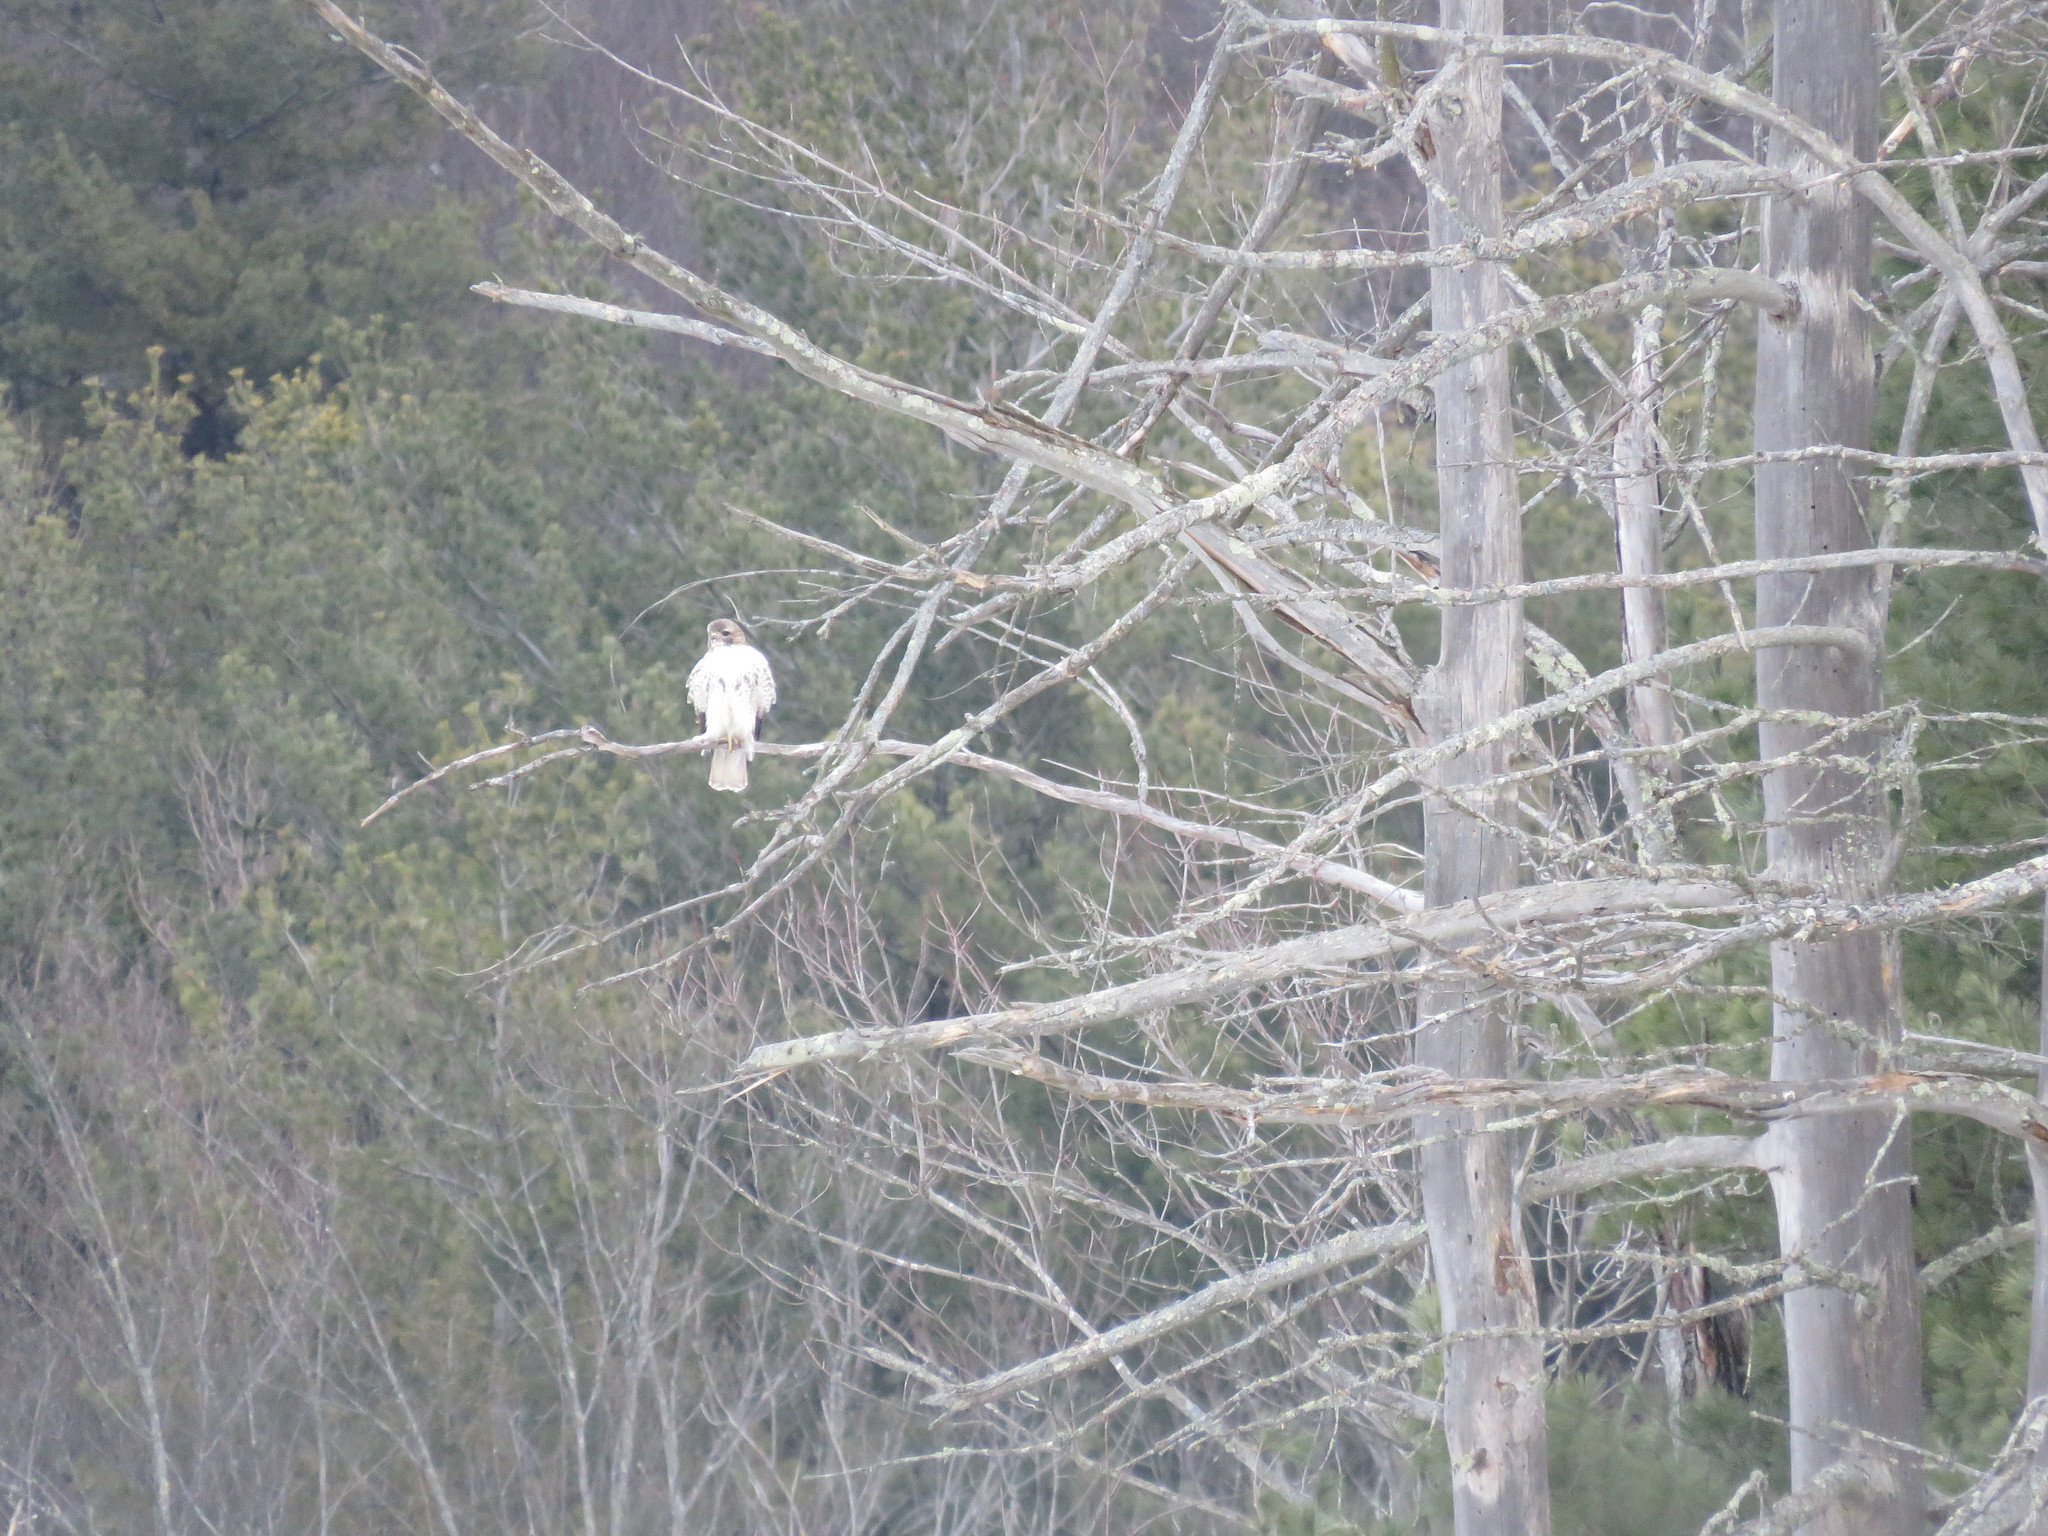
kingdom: Animalia
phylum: Chordata
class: Aves
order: Accipitriformes
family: Accipitridae
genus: Buteo
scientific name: Buteo jamaicensis
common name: Red-tailed hawk
